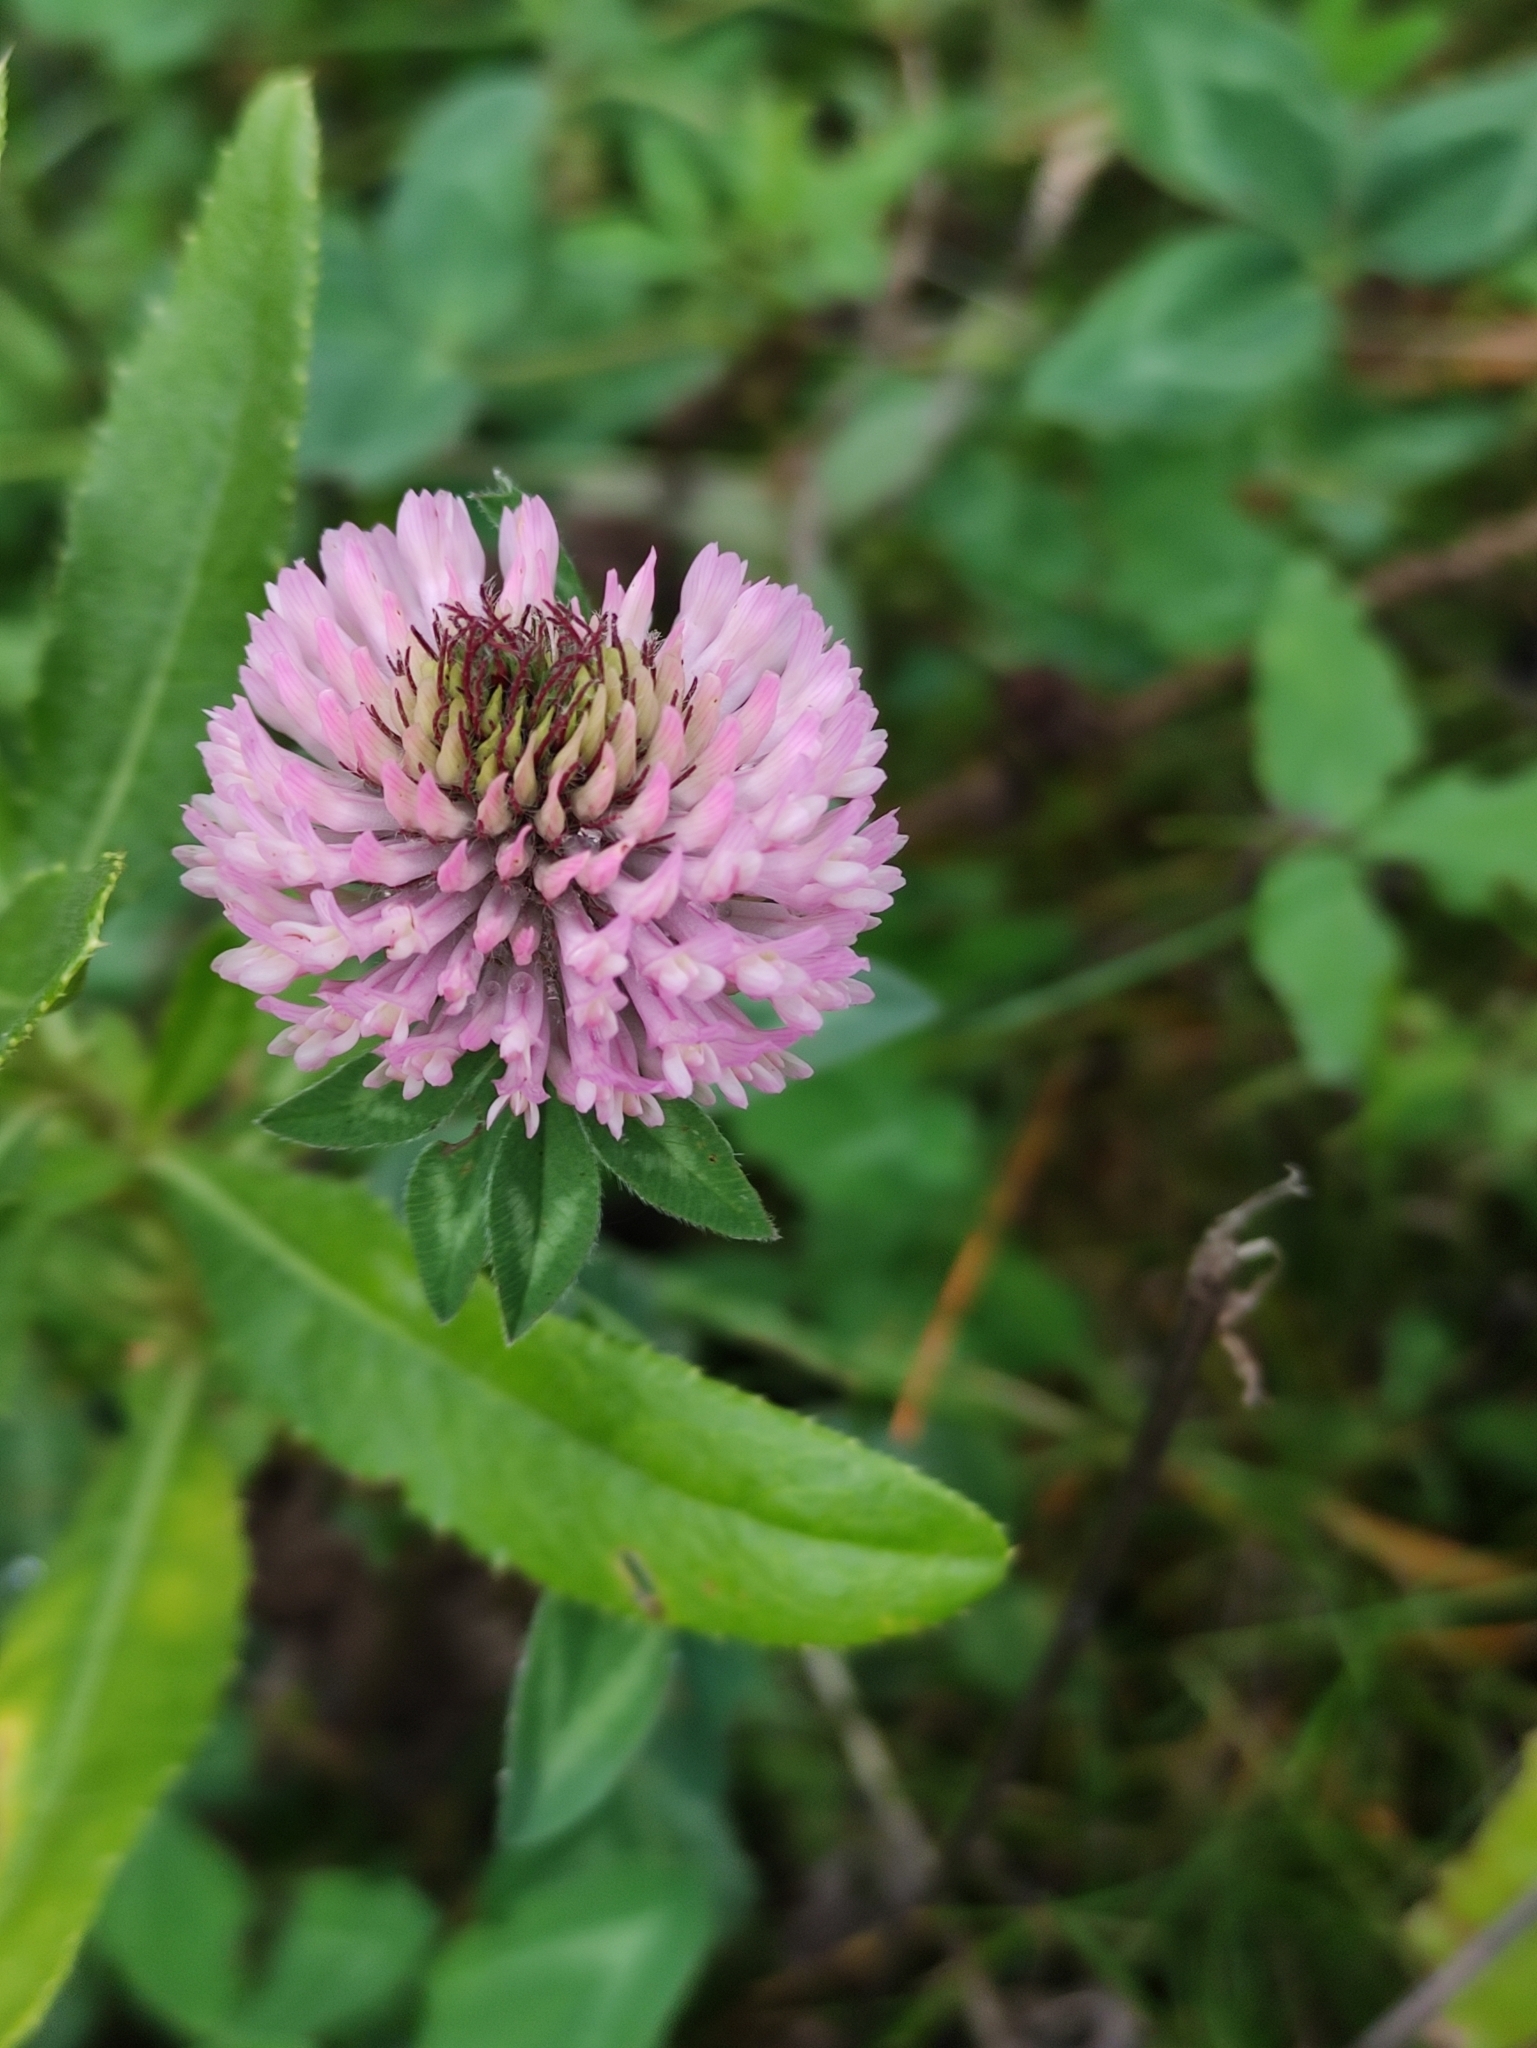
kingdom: Plantae
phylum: Tracheophyta
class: Magnoliopsida
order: Fabales
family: Fabaceae
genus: Trifolium
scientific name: Trifolium pratense
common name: Red clover
